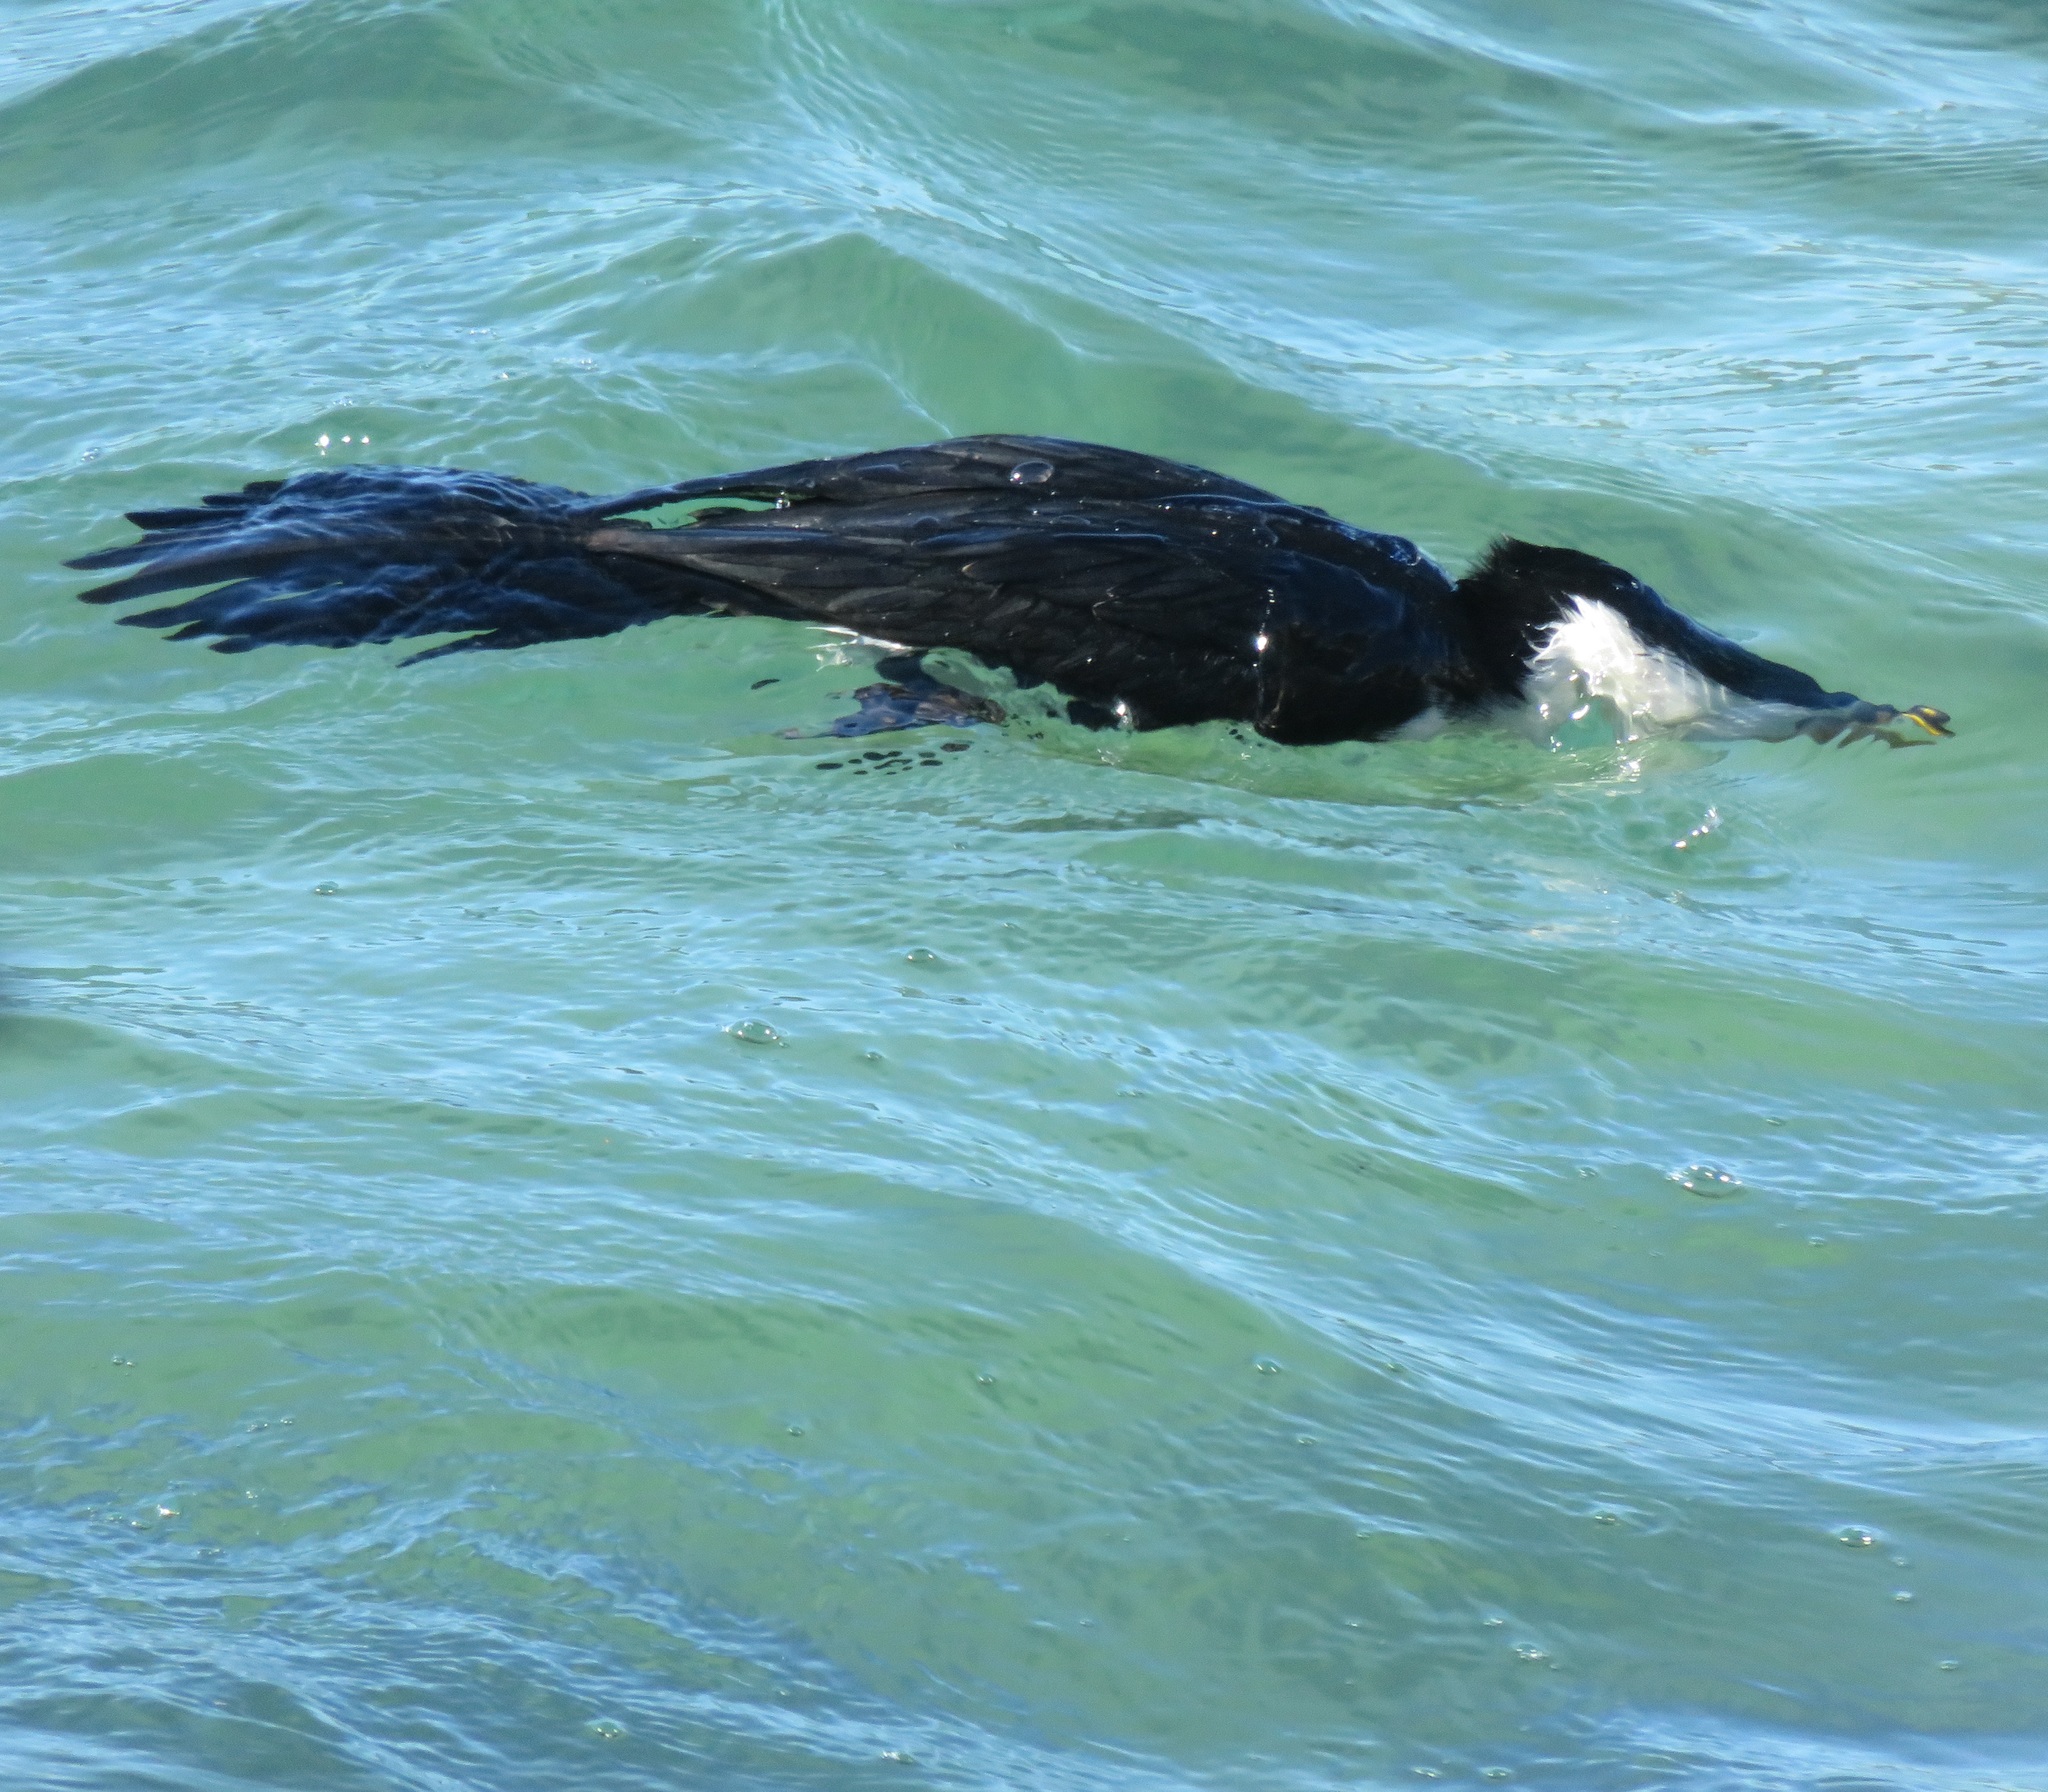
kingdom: Animalia
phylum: Chordata
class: Aves
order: Suliformes
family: Phalacrocoracidae
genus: Microcarbo
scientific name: Microcarbo melanoleucos
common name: Little pied cormorant
